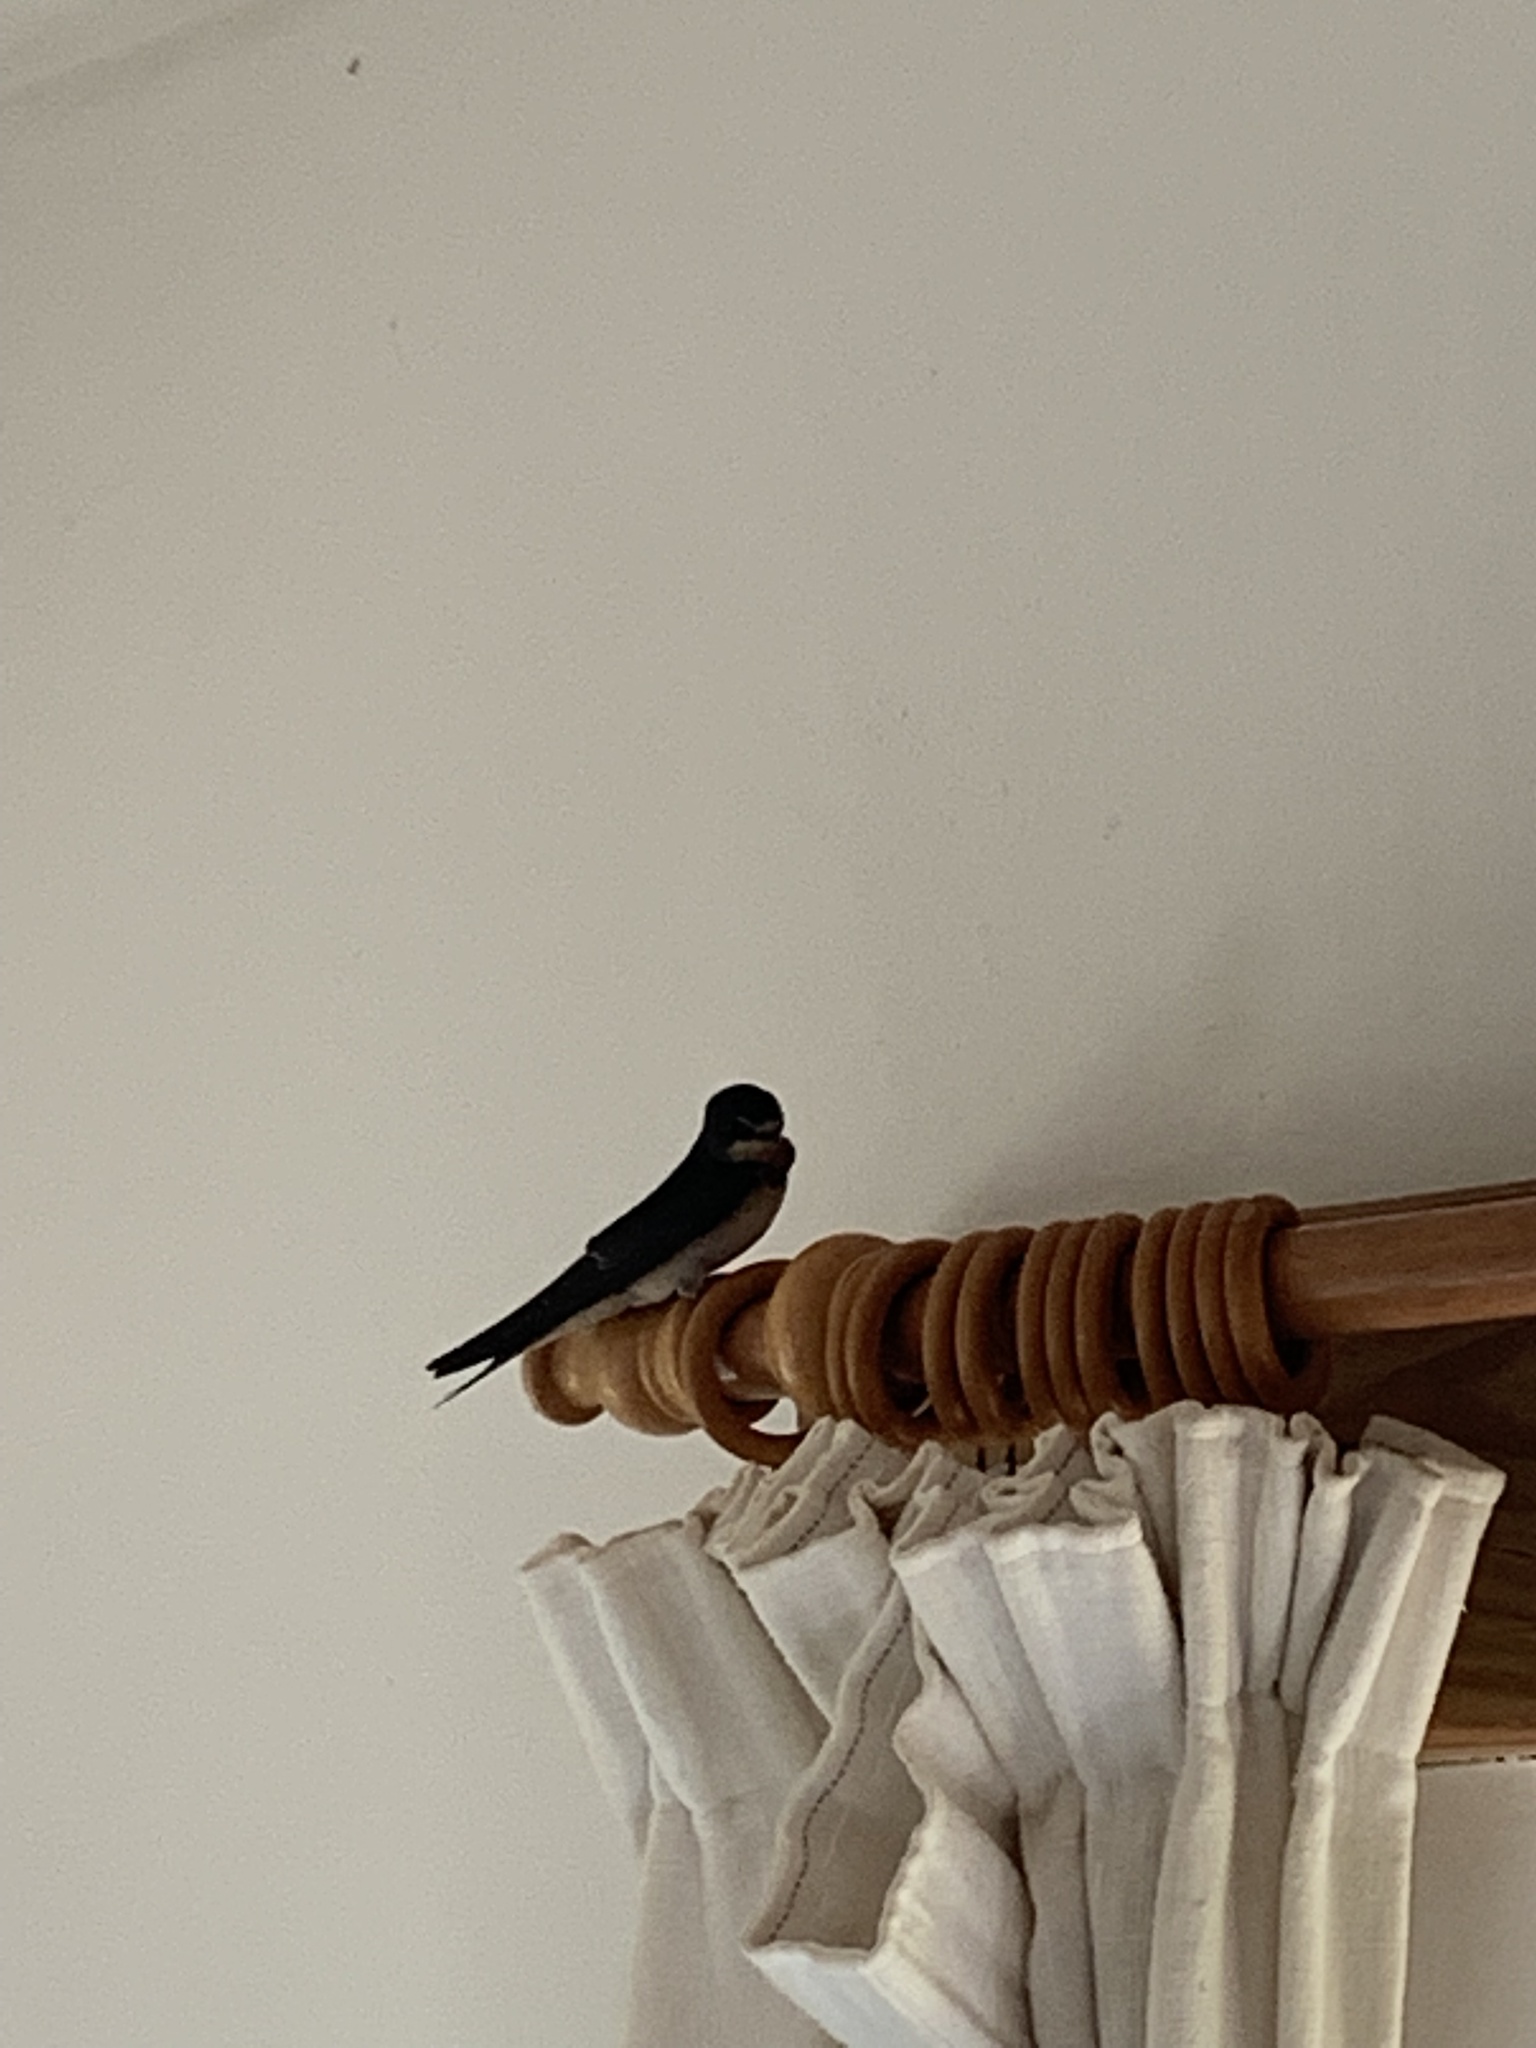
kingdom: Animalia
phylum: Chordata
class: Aves
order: Passeriformes
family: Hirundinidae
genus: Hirundo
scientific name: Hirundo rustica
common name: Barn swallow
